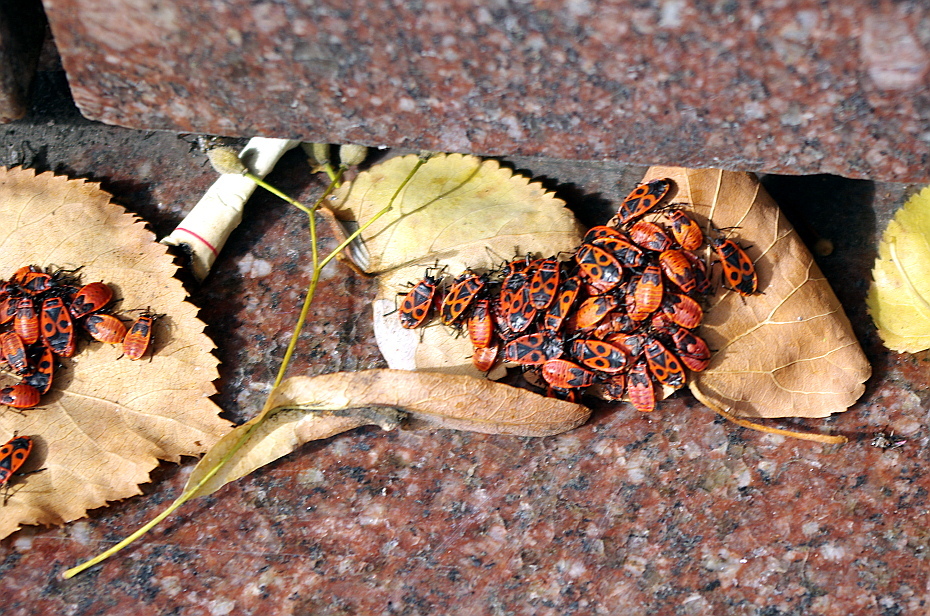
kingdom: Animalia
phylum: Arthropoda
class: Insecta
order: Hemiptera
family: Pyrrhocoridae
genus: Pyrrhocoris
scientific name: Pyrrhocoris apterus
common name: Firebug
